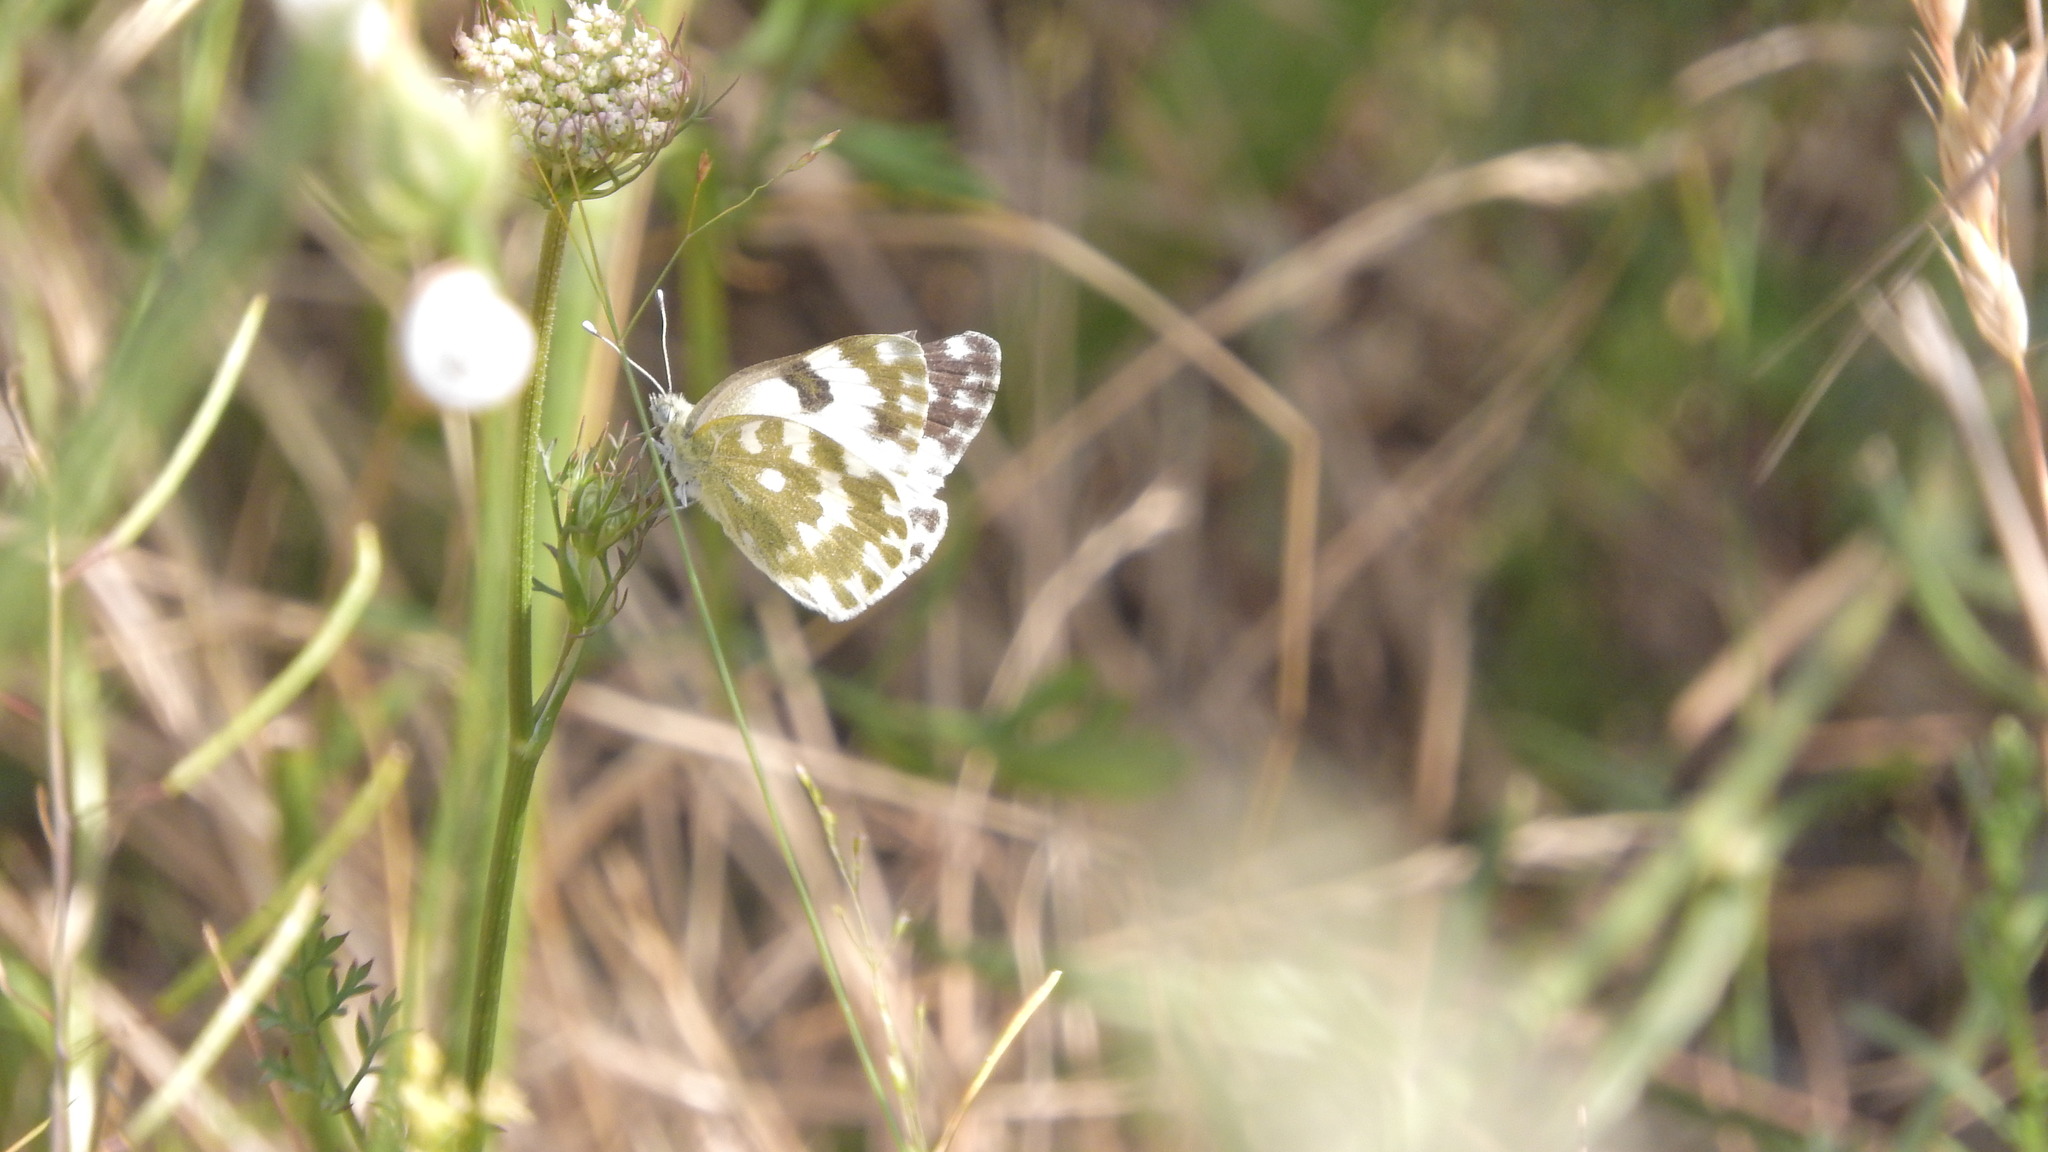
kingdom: Animalia
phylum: Arthropoda
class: Insecta
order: Lepidoptera
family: Pieridae
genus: Pontia
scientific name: Pontia edusa
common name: Eastern bath white
